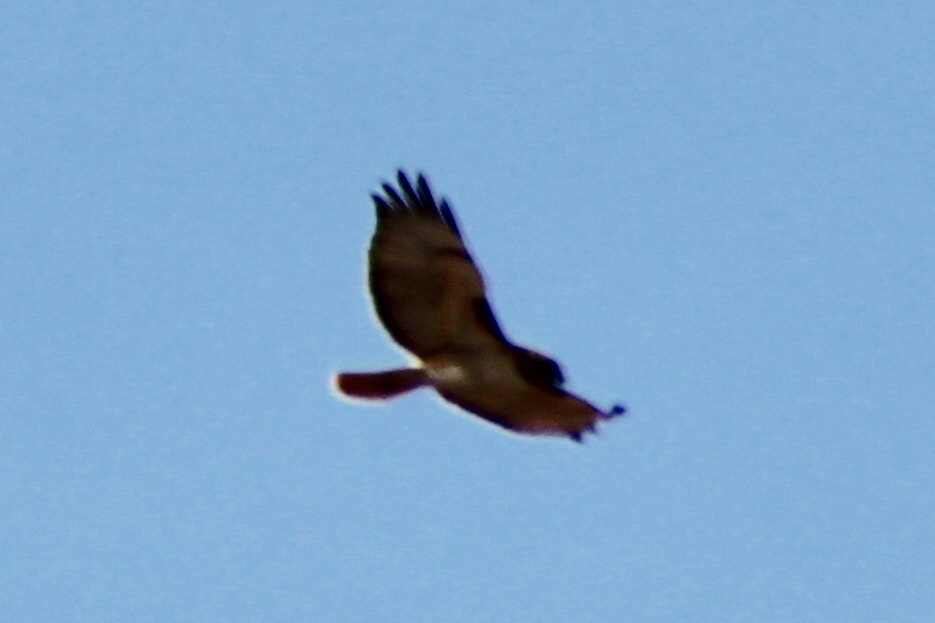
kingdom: Animalia
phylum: Chordata
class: Aves
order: Accipitriformes
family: Accipitridae
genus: Buteo
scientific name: Buteo jamaicensis
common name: Red-tailed hawk
